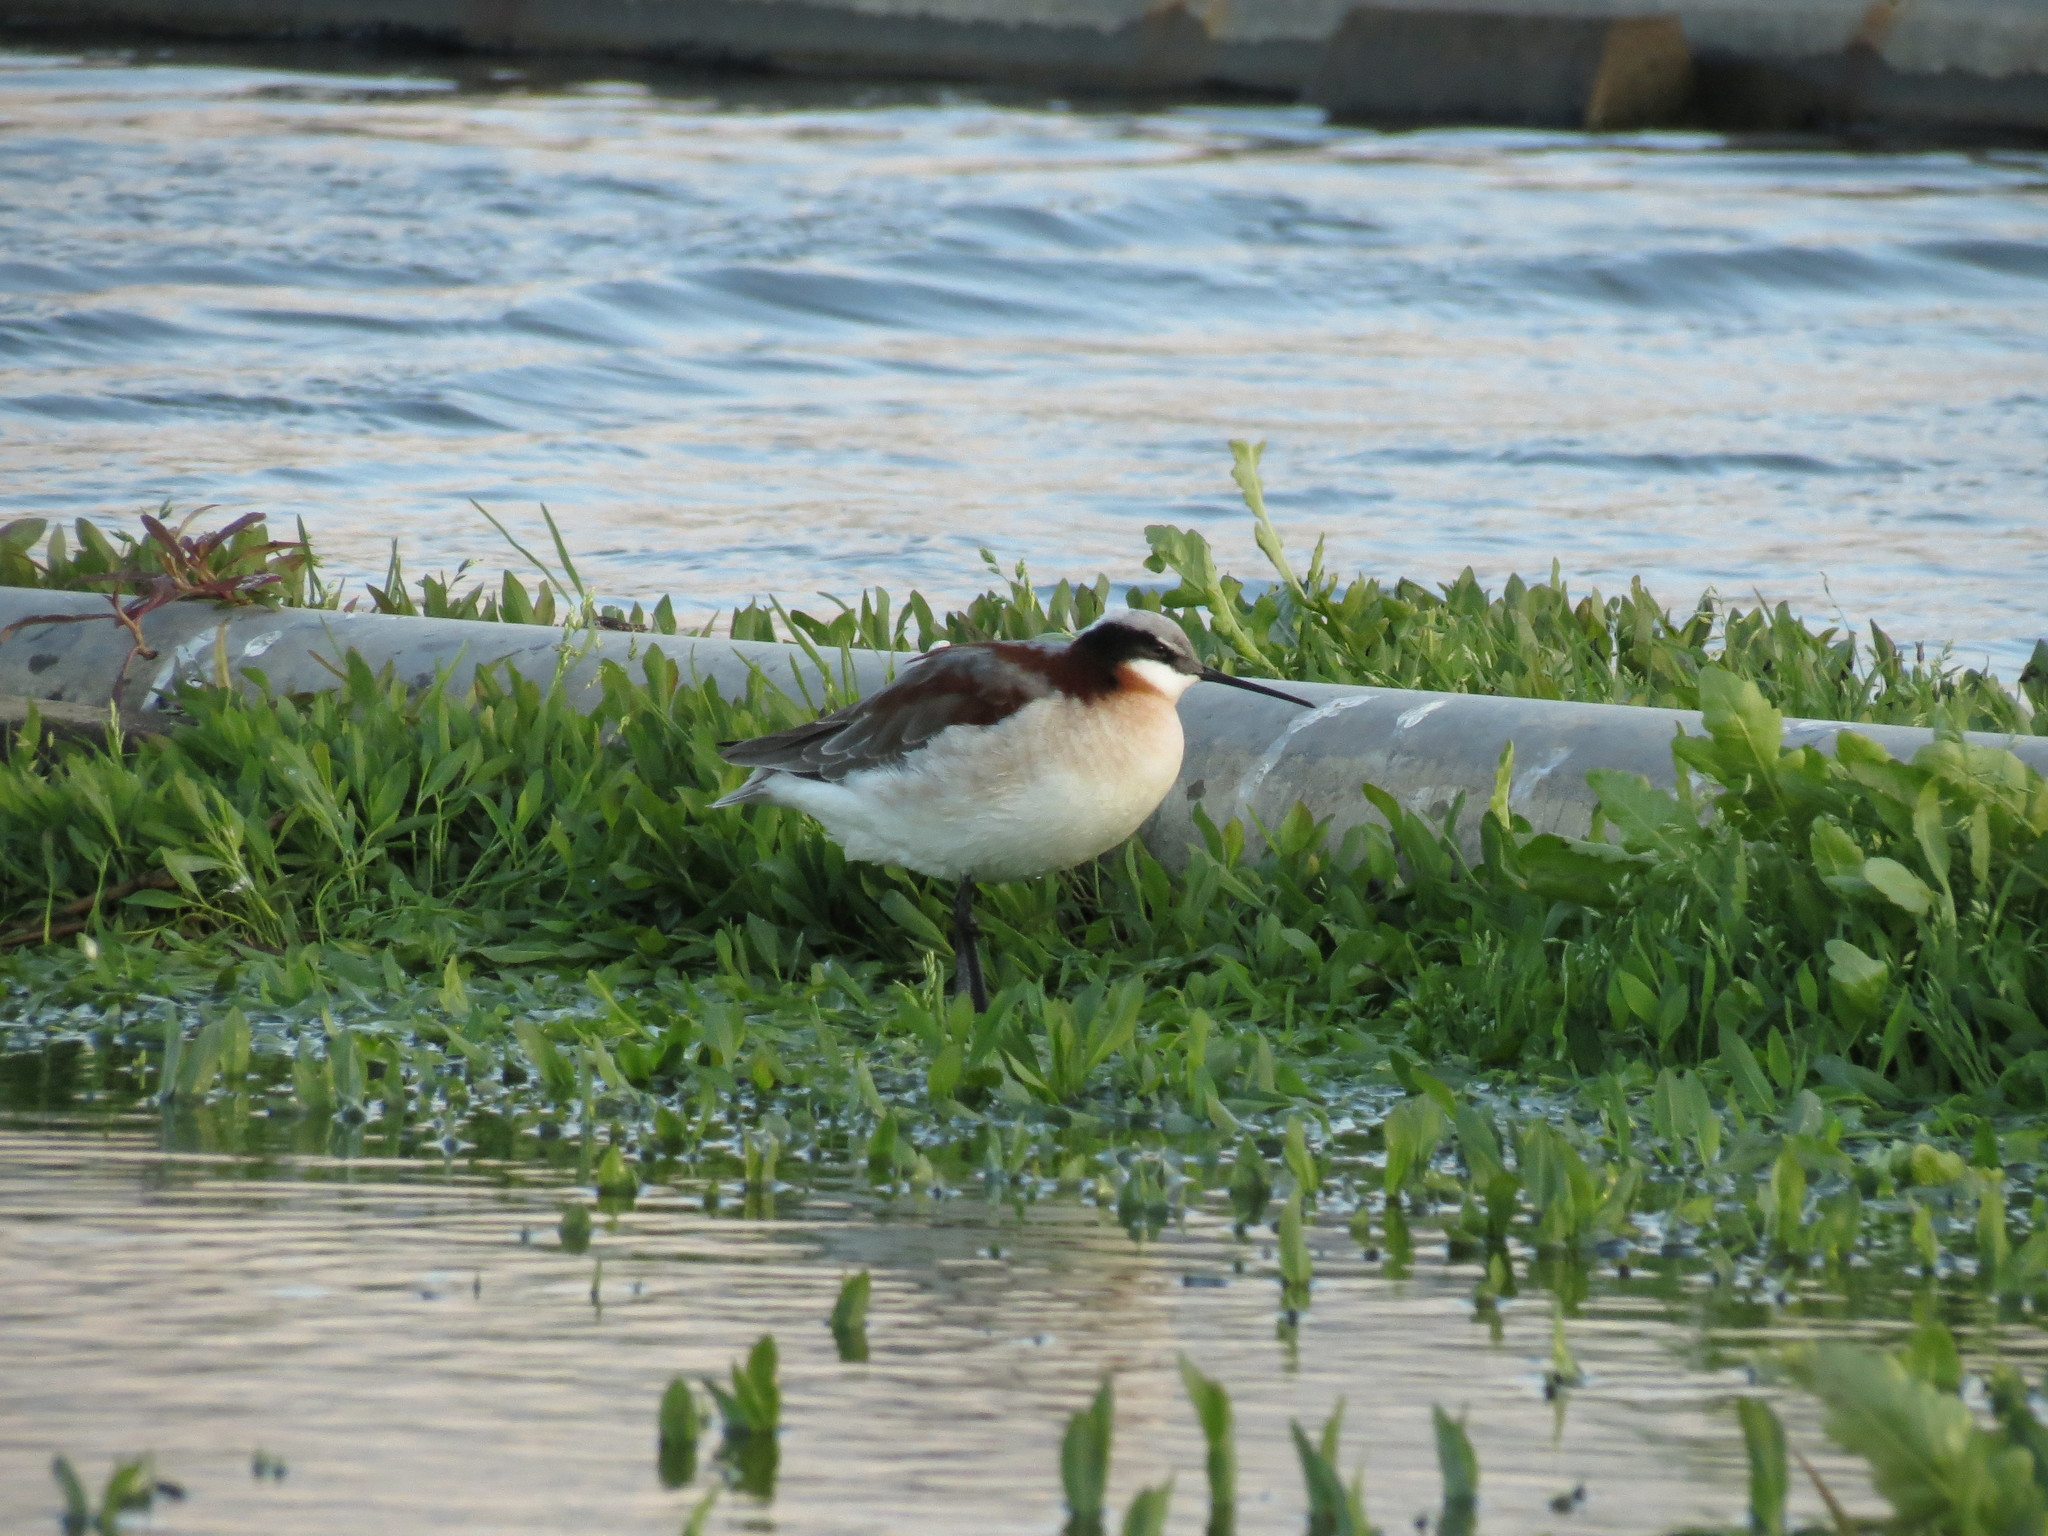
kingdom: Animalia
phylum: Chordata
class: Aves
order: Charadriiformes
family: Scolopacidae
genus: Phalaropus
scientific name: Phalaropus tricolor
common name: Wilson's phalarope
